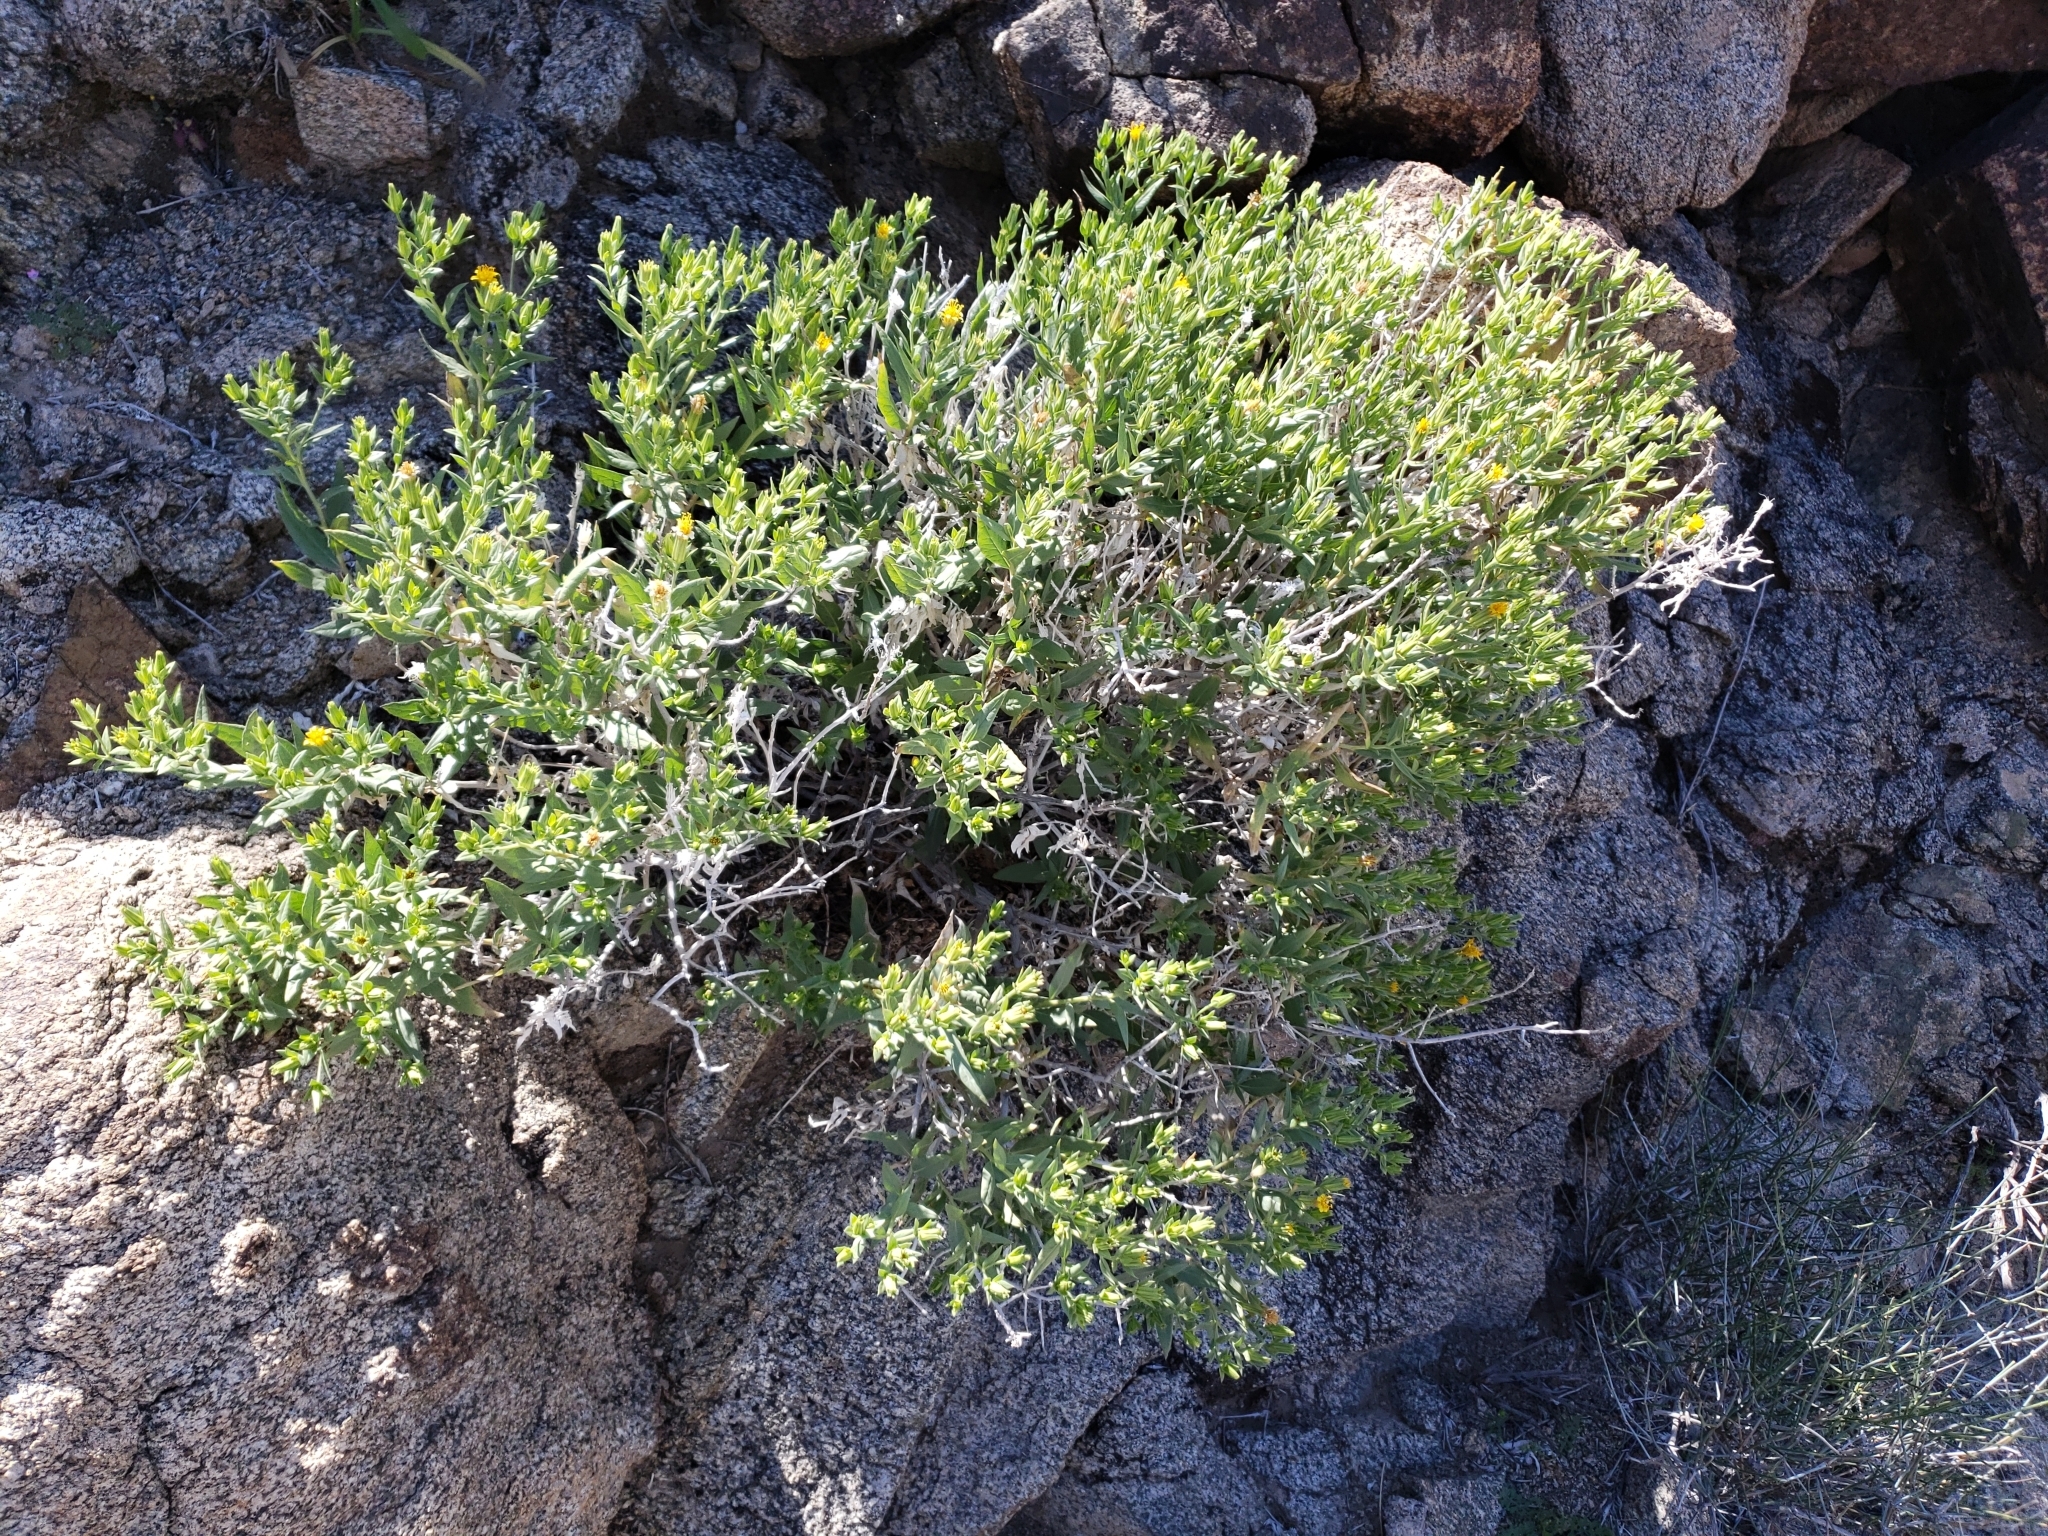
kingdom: Plantae
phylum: Tracheophyta
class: Magnoliopsida
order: Asterales
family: Asteraceae
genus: Trixis
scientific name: Trixis californica
